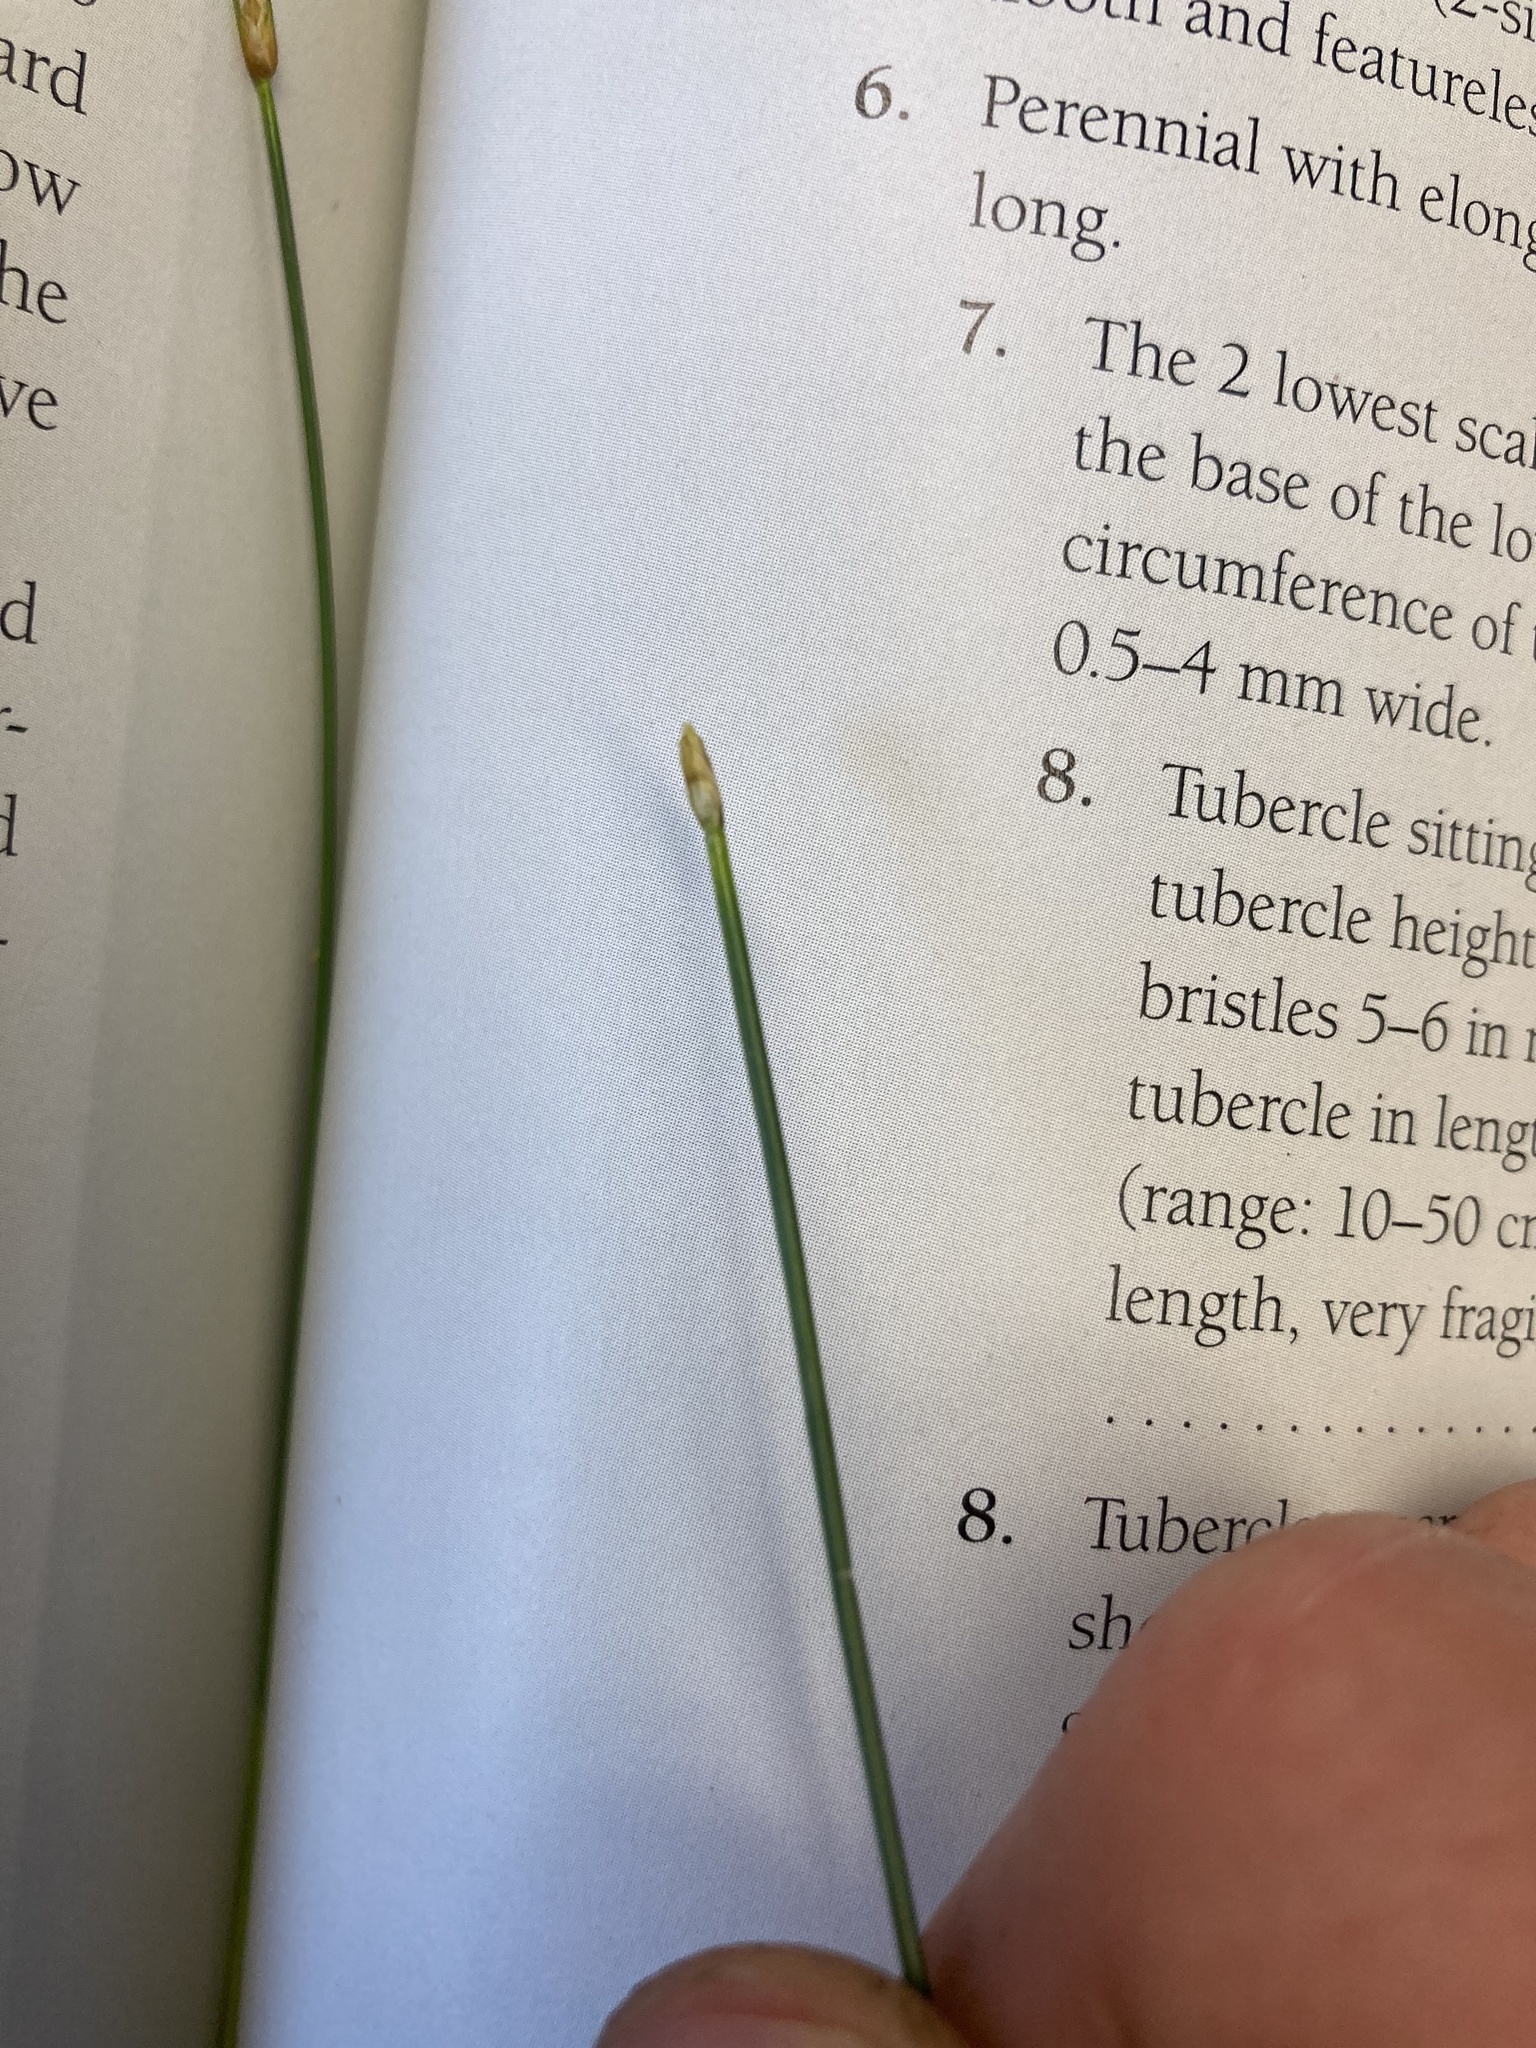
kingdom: Plantae
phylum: Tracheophyta
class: Liliopsida
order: Poales
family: Cyperaceae
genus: Trichophorum
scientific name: Trichophorum cespitosum
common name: Cespitose bulrush
